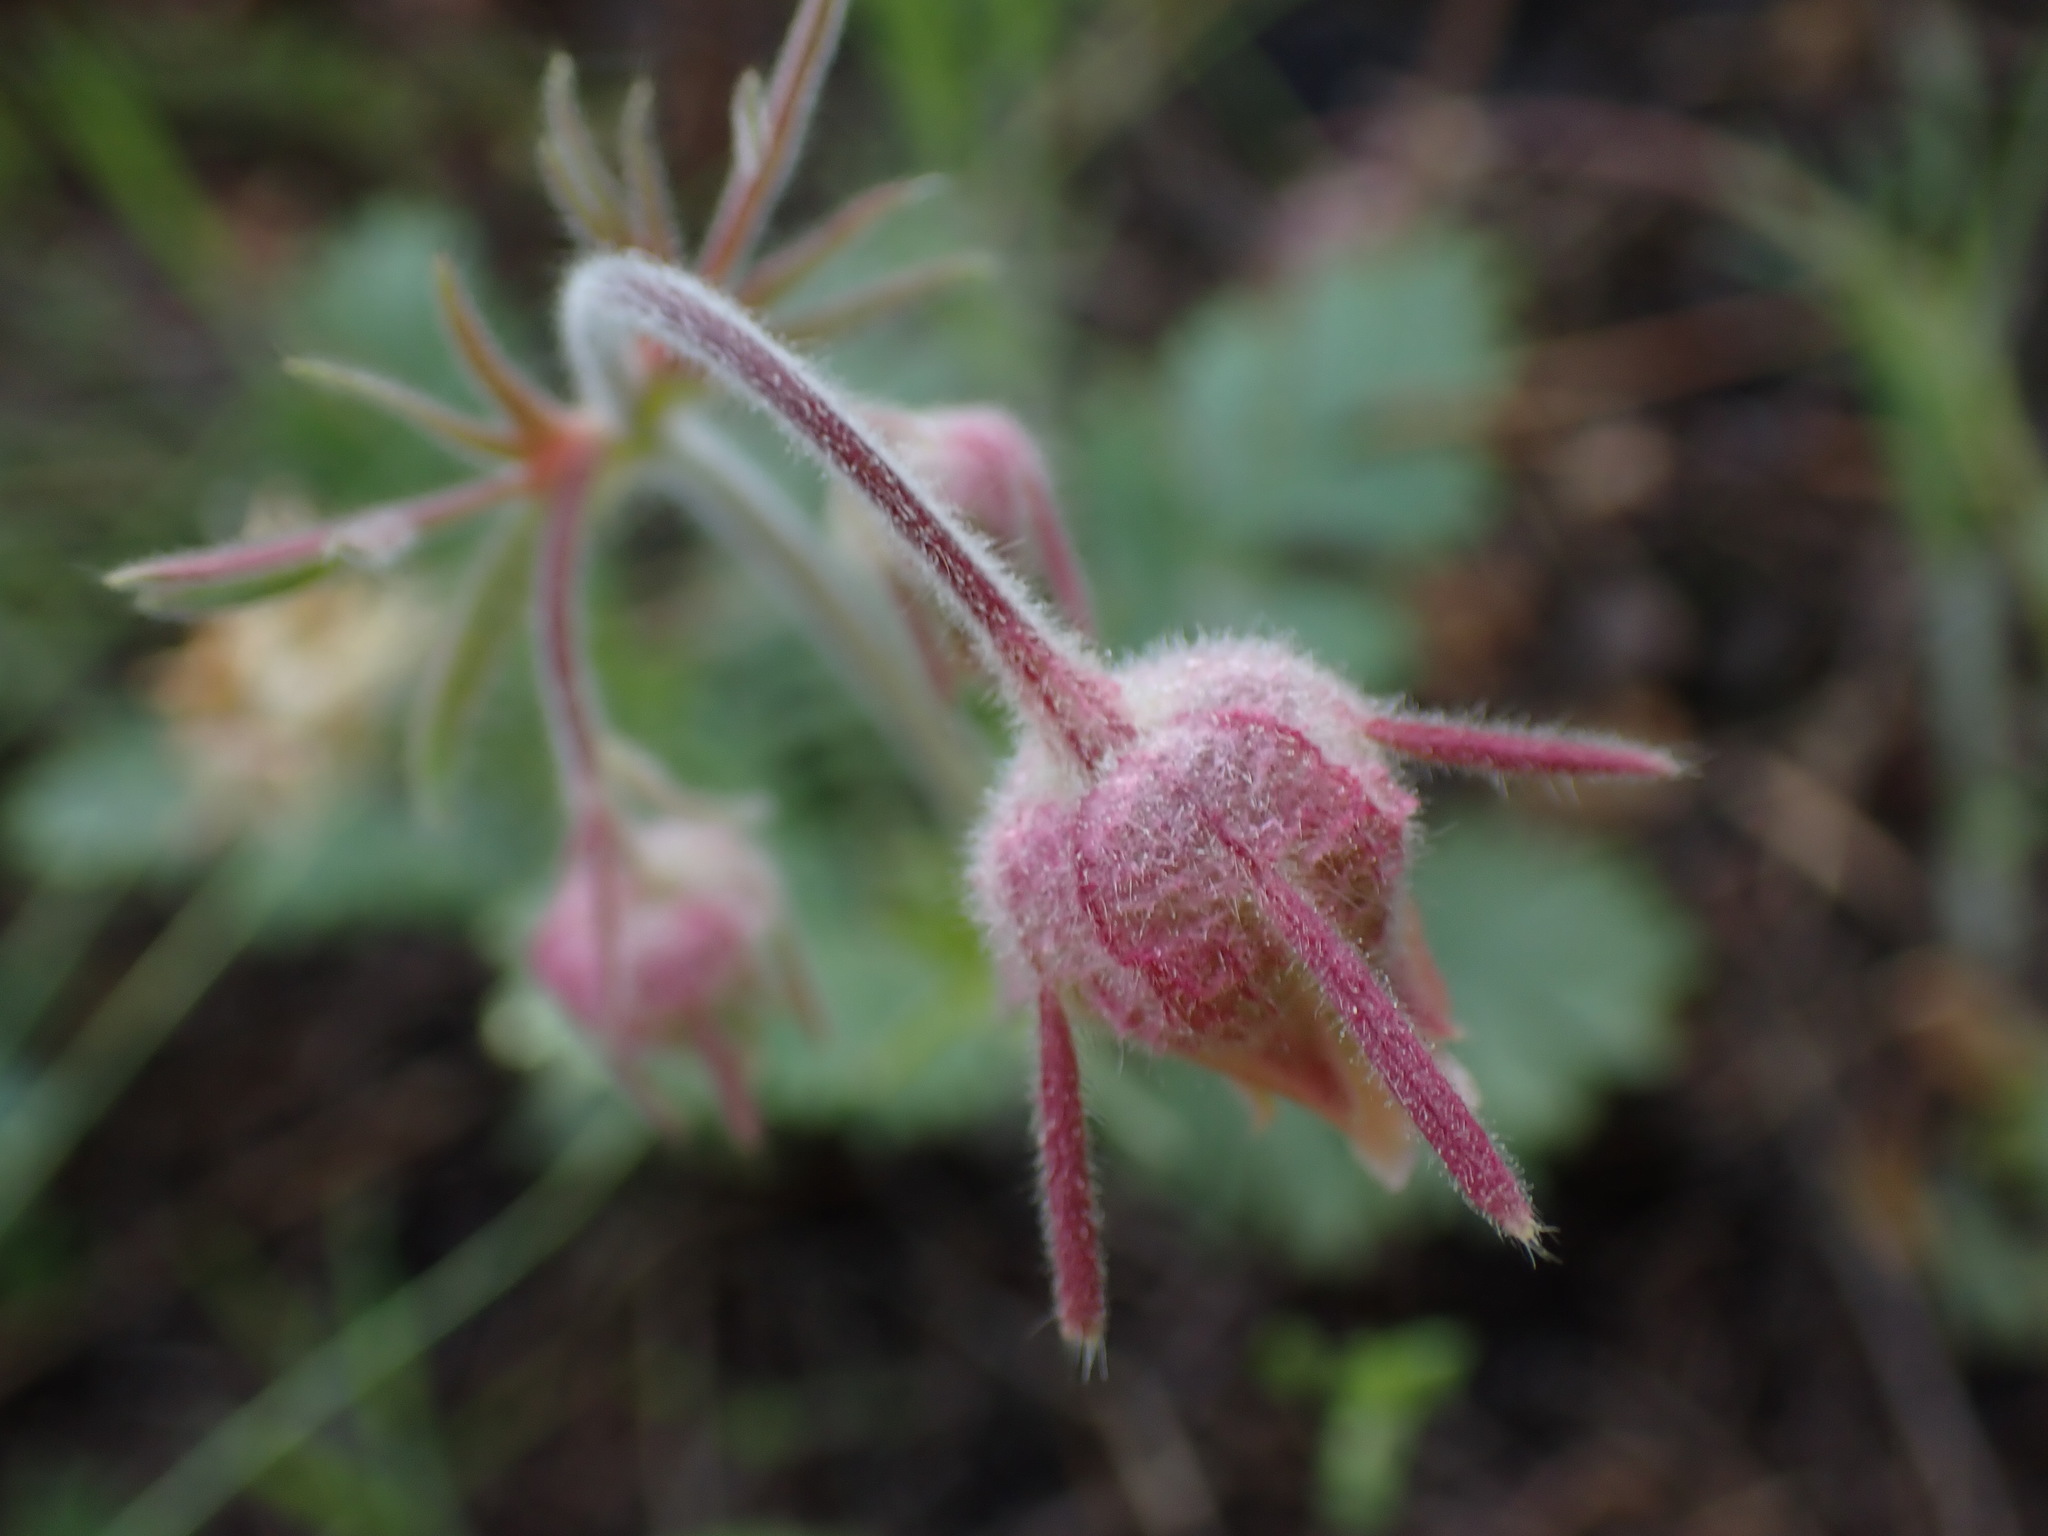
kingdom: Plantae
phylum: Tracheophyta
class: Magnoliopsida
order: Rosales
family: Rosaceae
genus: Geum
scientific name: Geum triflorum
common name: Old man's whiskers
